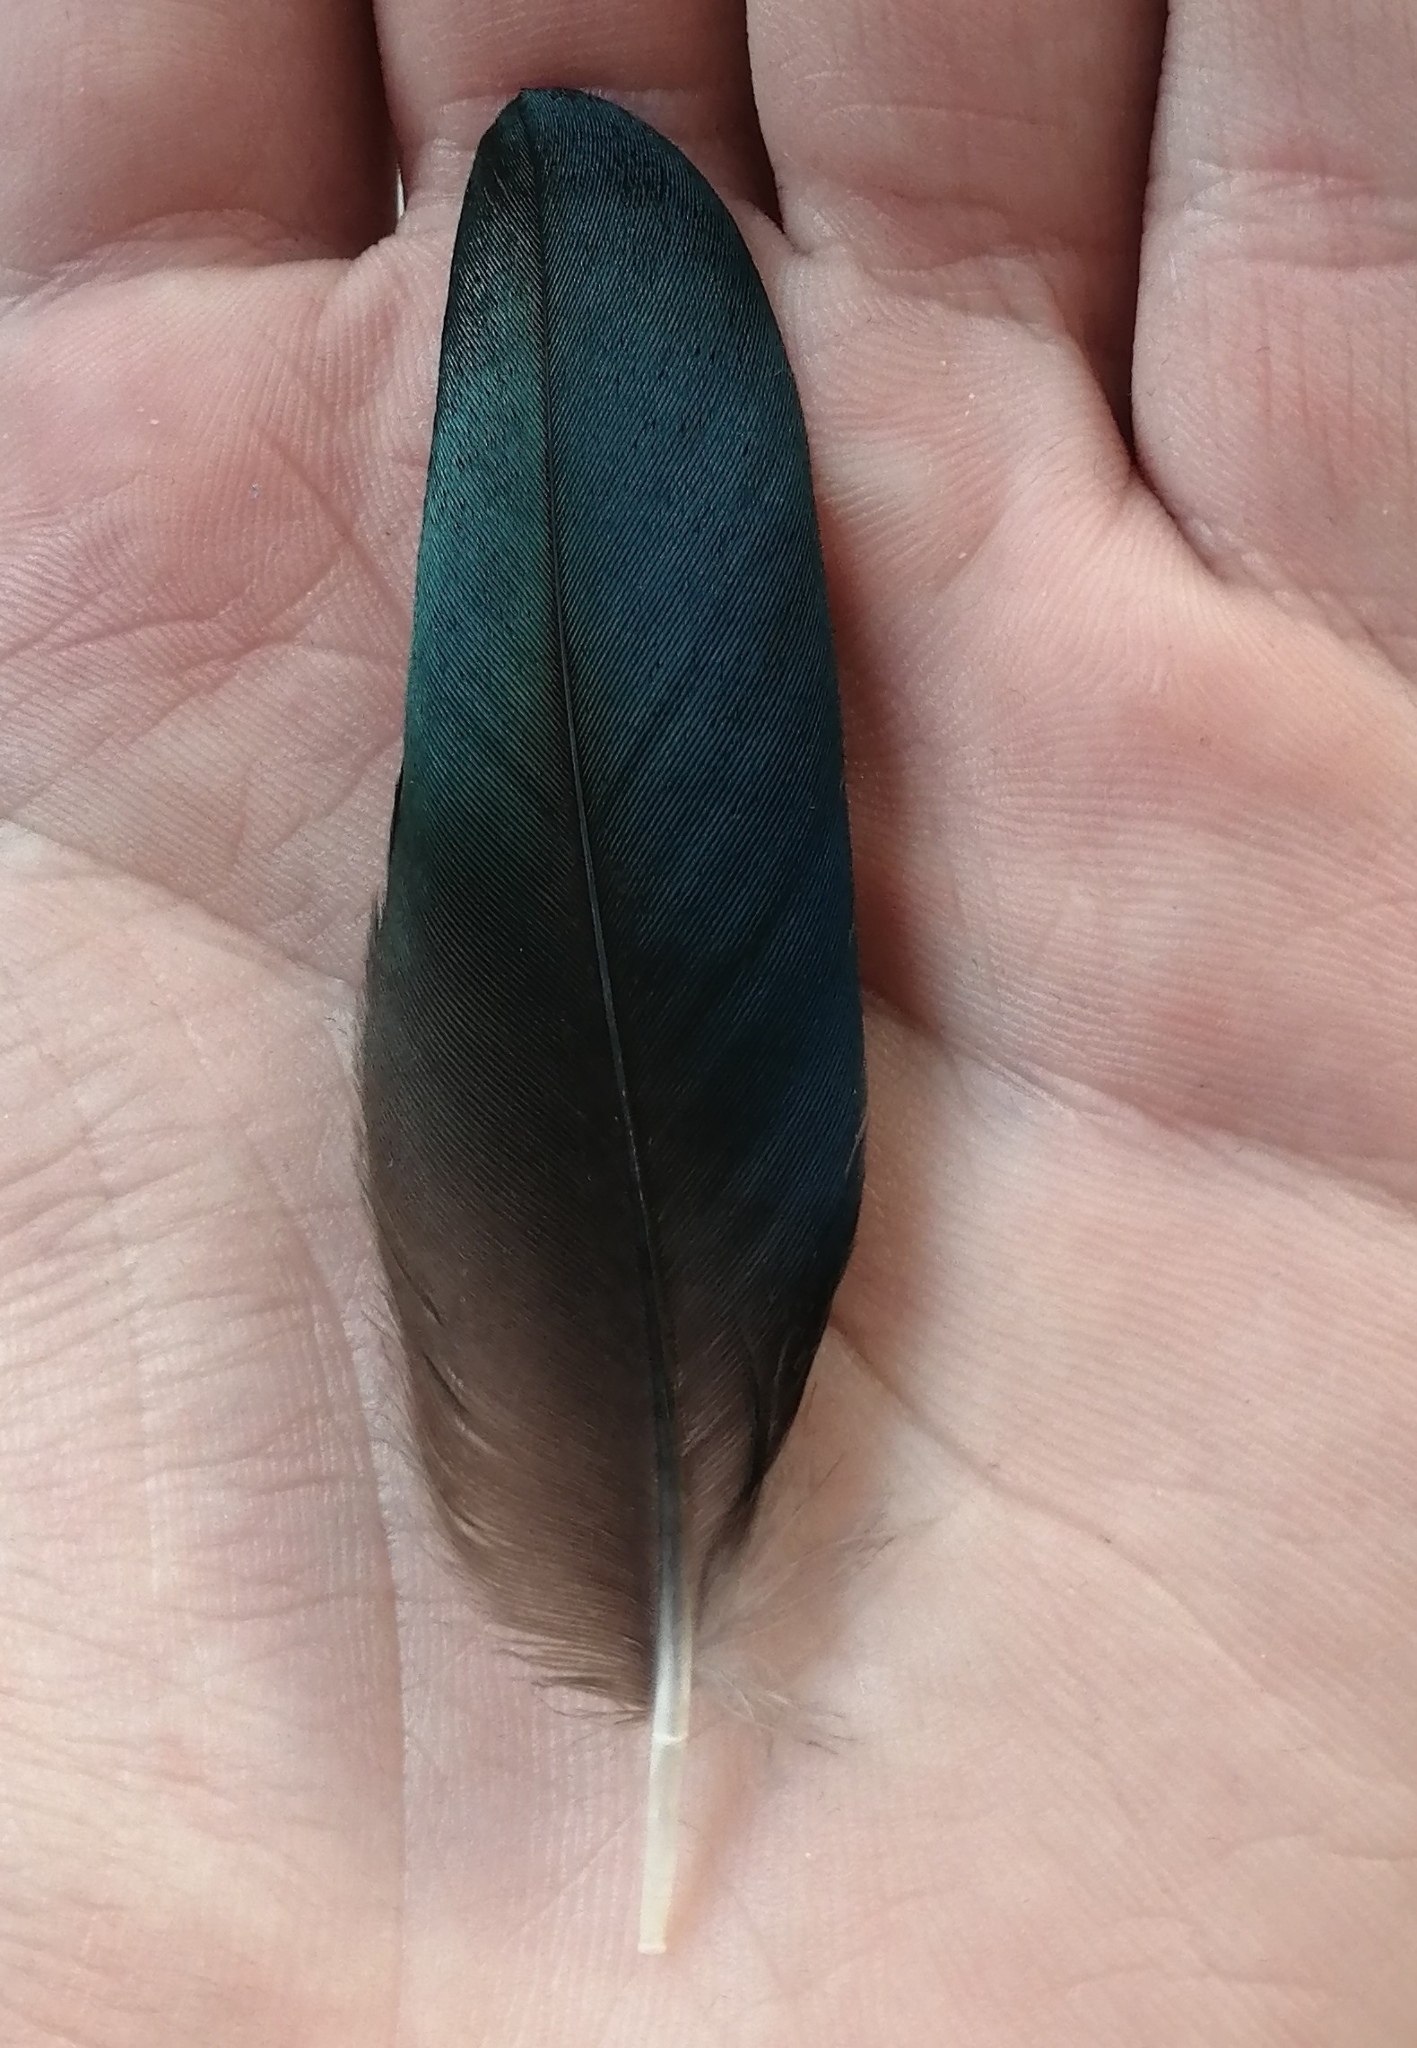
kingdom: Animalia
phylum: Chordata
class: Aves
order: Passeriformes
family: Corvidae
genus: Pica
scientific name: Pica pica
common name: Eurasian magpie
